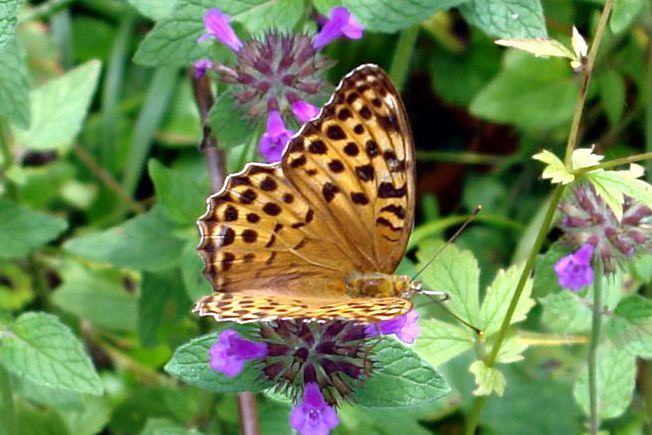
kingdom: Animalia
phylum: Arthropoda
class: Insecta
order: Lepidoptera
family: Nymphalidae
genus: Argynnis
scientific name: Argynnis paphia
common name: Silver-washed fritillary
